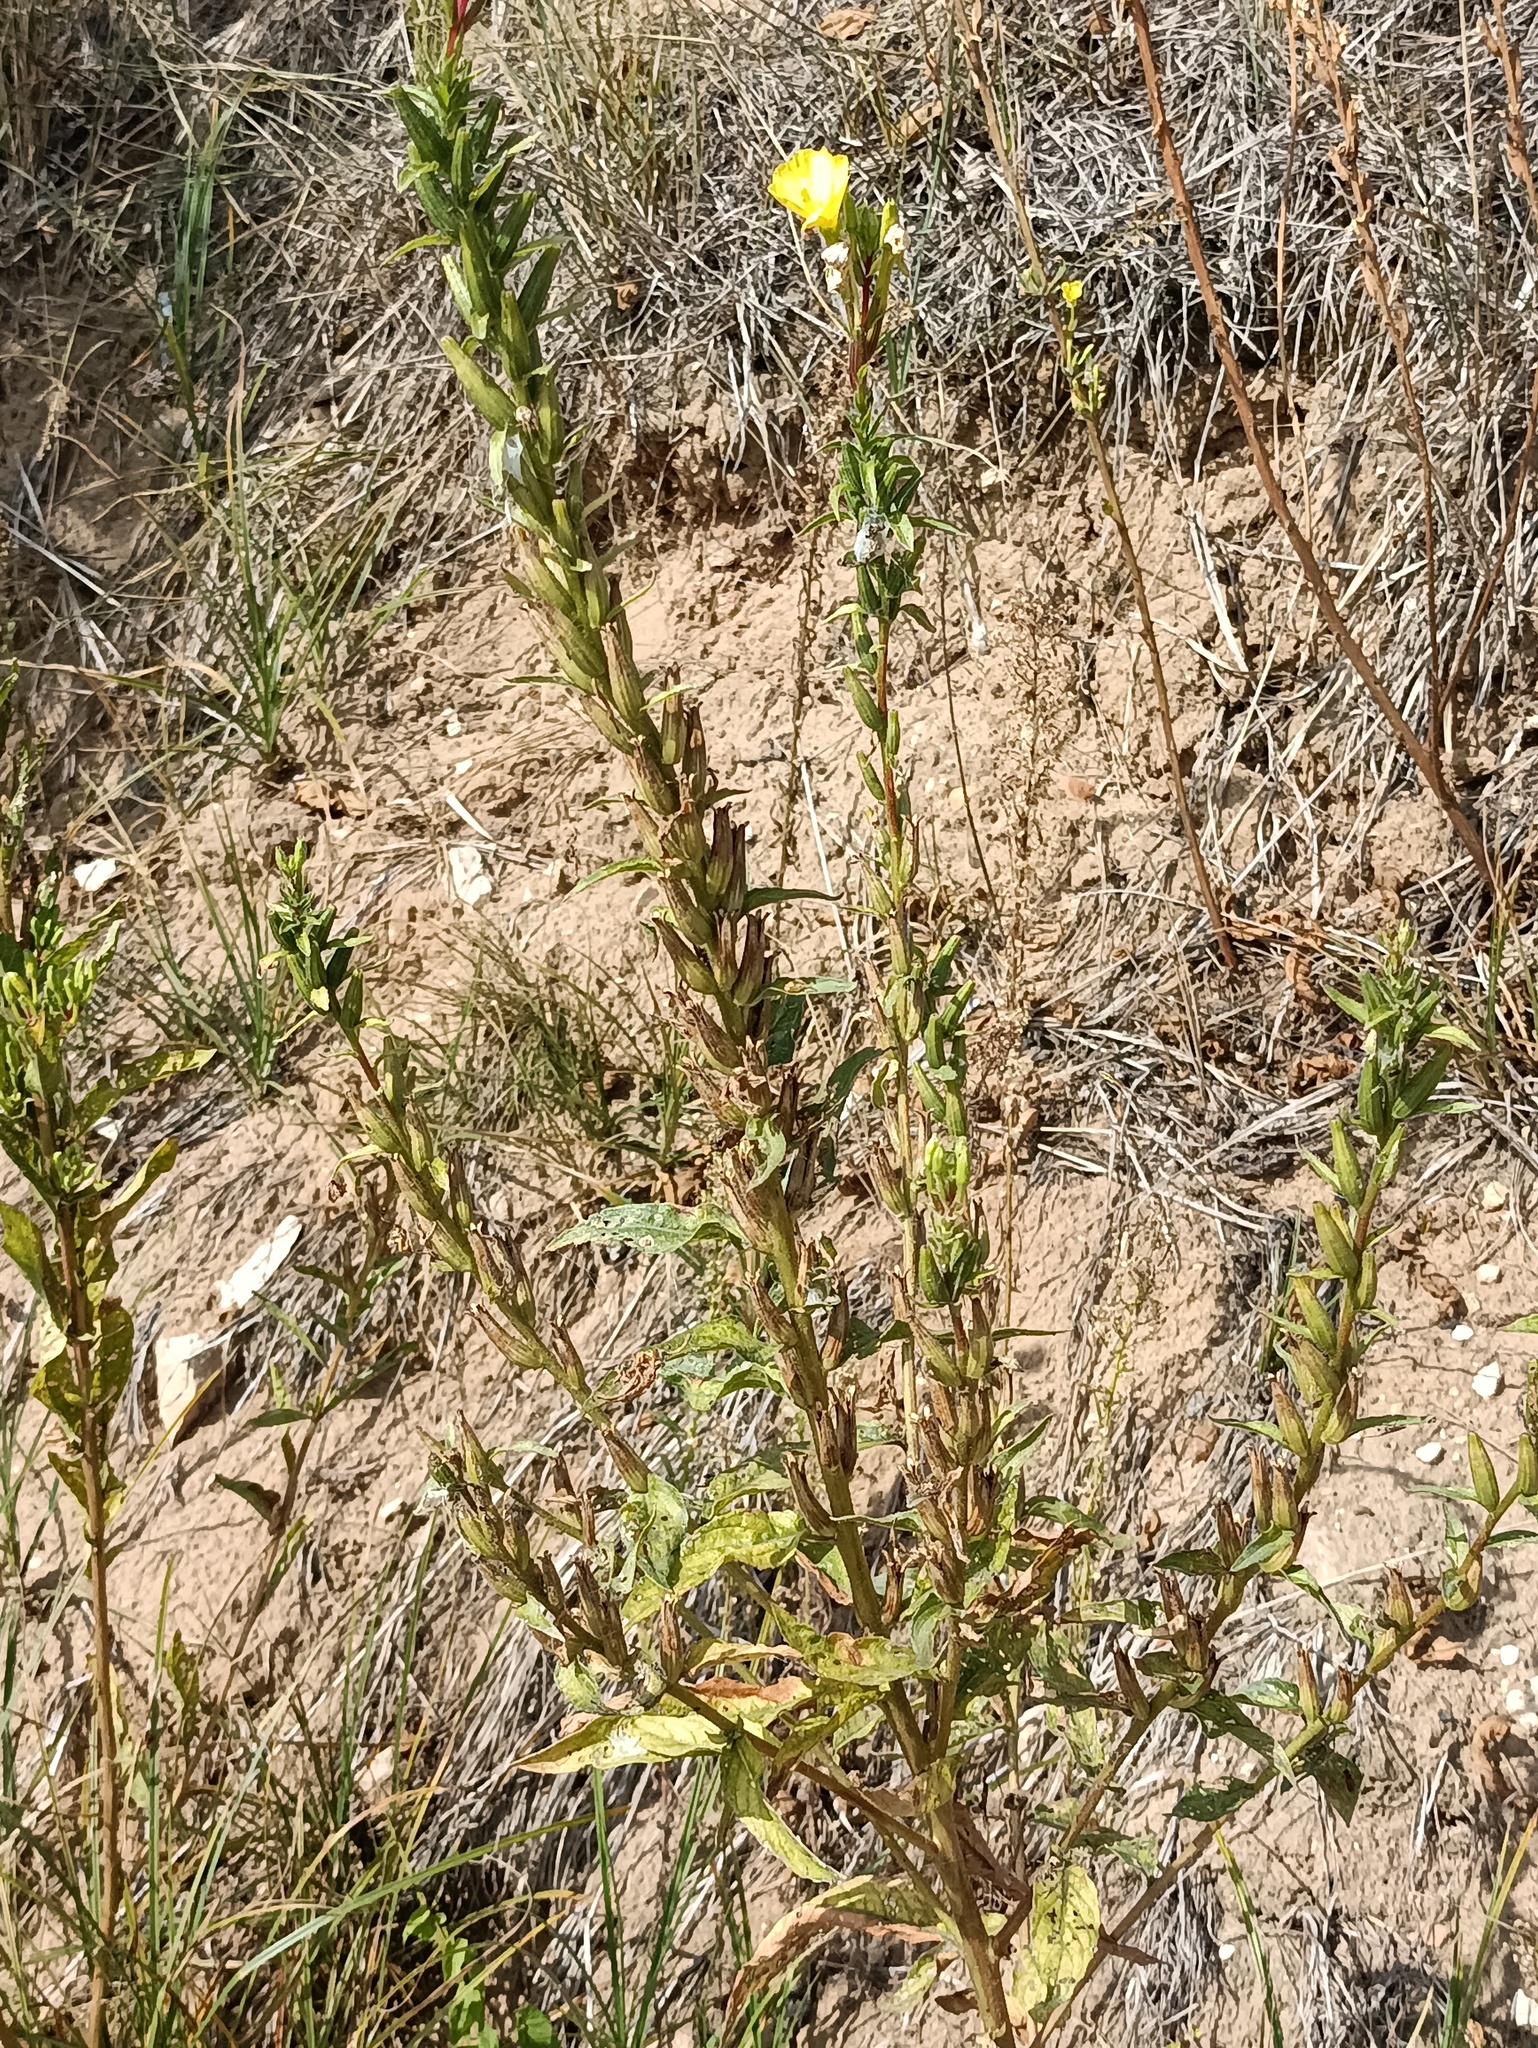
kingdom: Plantae
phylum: Tracheophyta
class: Magnoliopsida
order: Myrtales
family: Onagraceae
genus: Oenothera
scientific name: Oenothera rubricaulis
